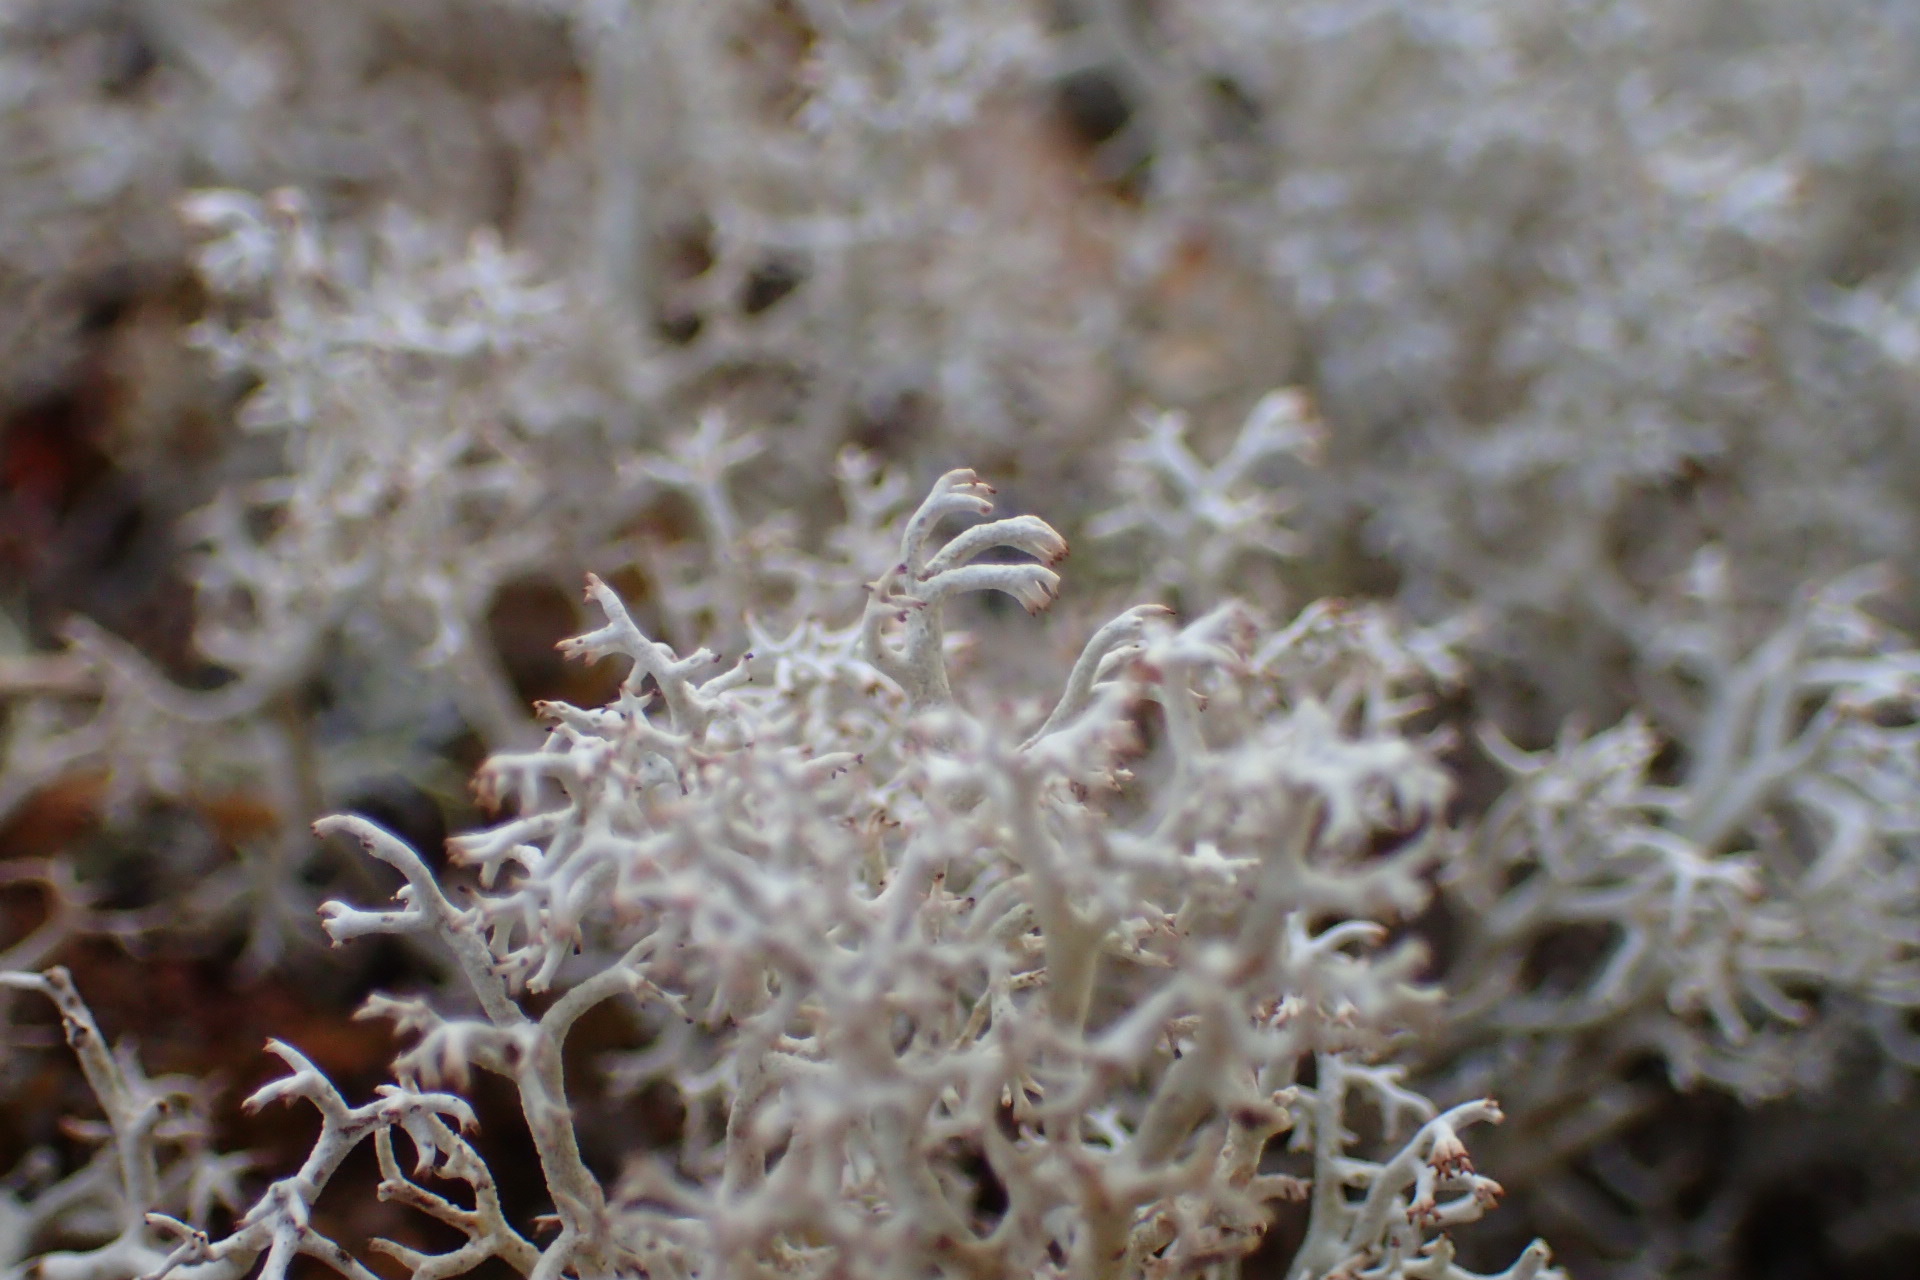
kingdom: Fungi
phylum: Ascomycota
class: Lecanoromycetes
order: Lecanorales
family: Cladoniaceae
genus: Cladonia
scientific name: Cladonia rangiferina
